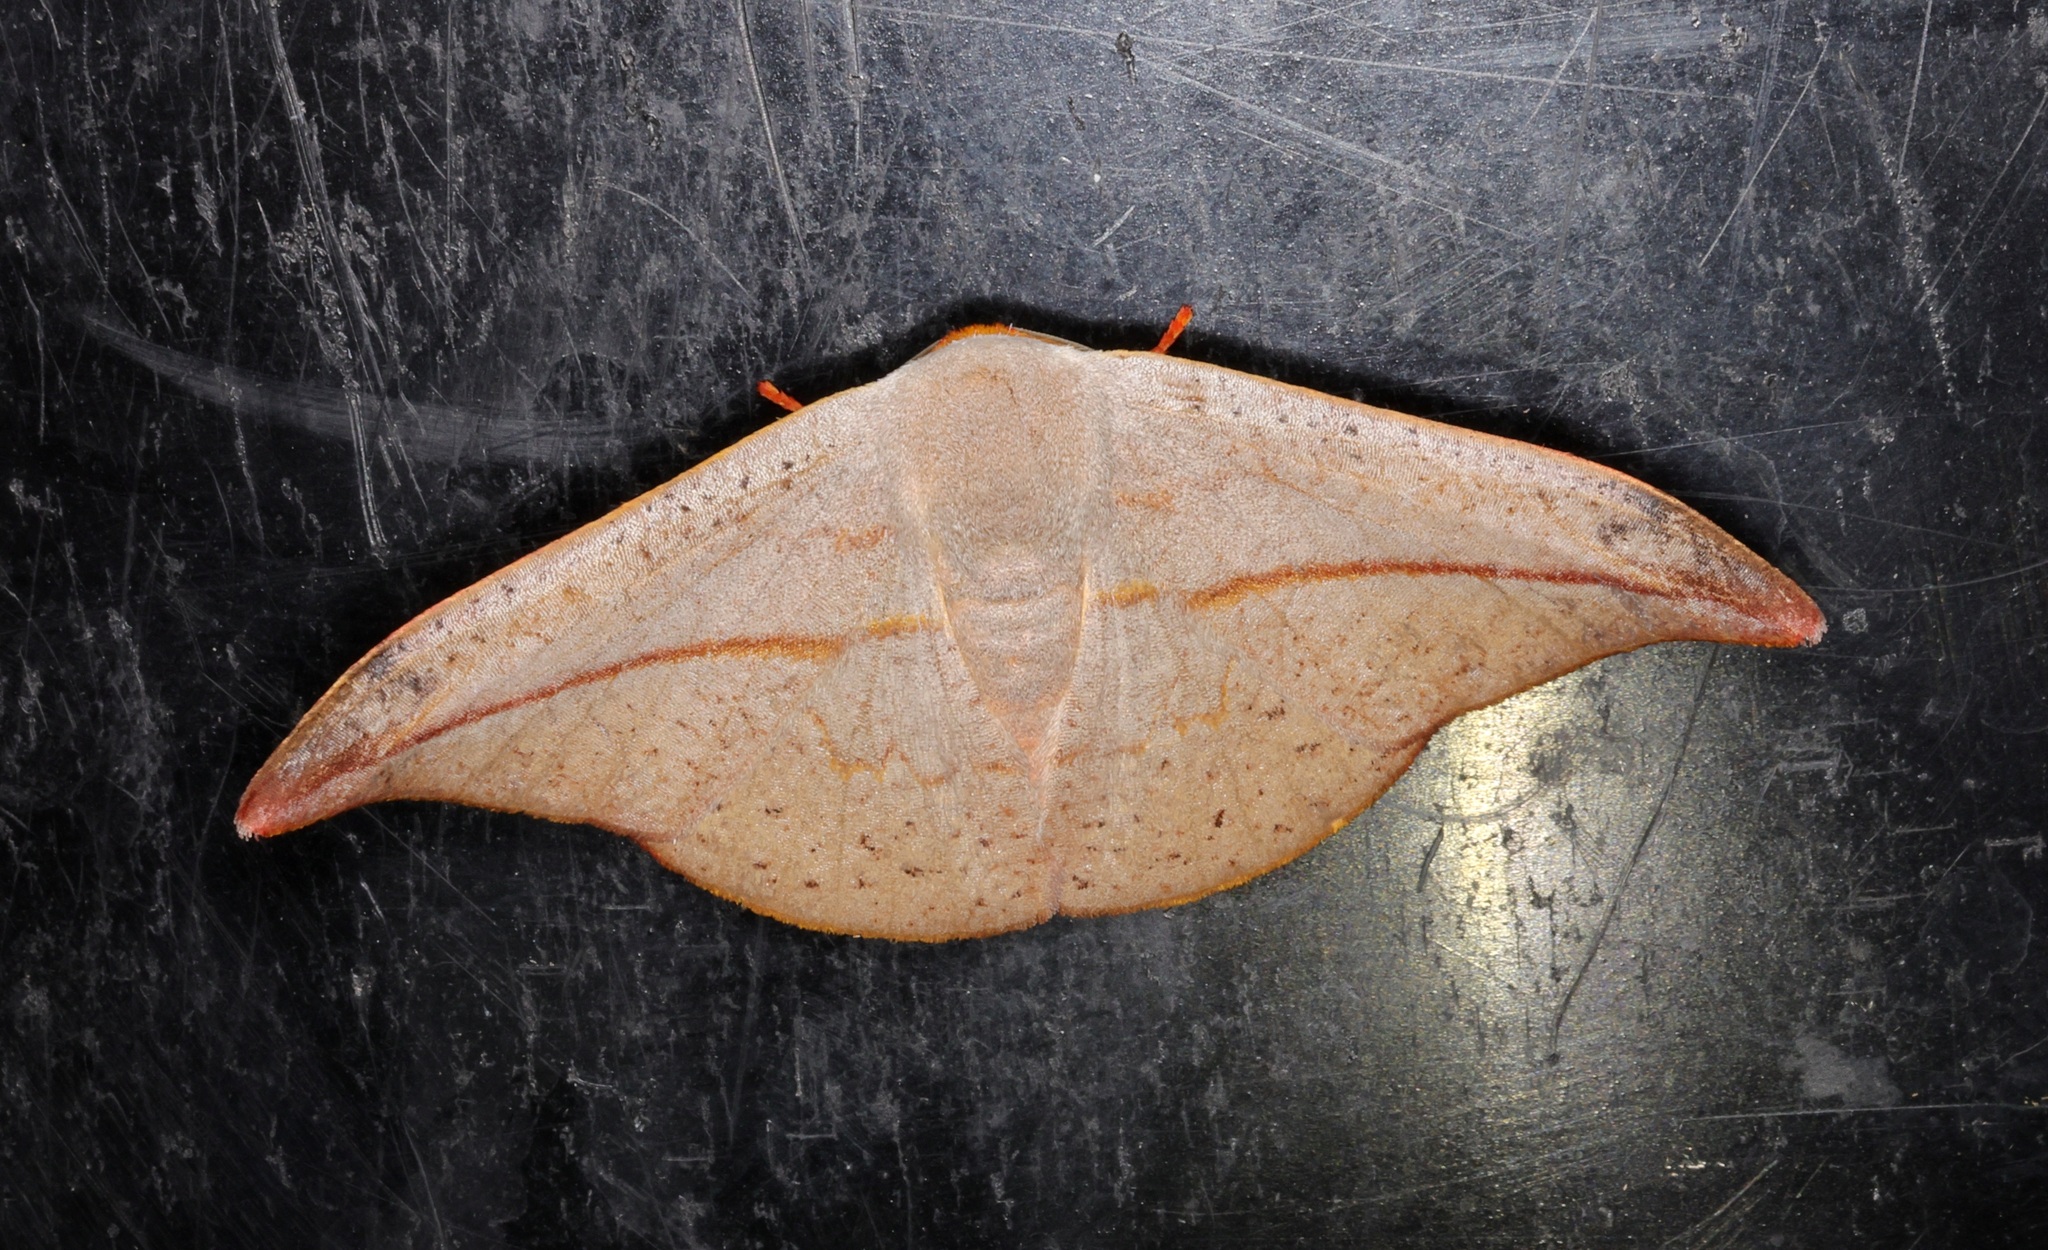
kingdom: Animalia
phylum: Arthropoda
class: Insecta
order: Lepidoptera
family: Drepanidae
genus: Oreta
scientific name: Oreta insignis
